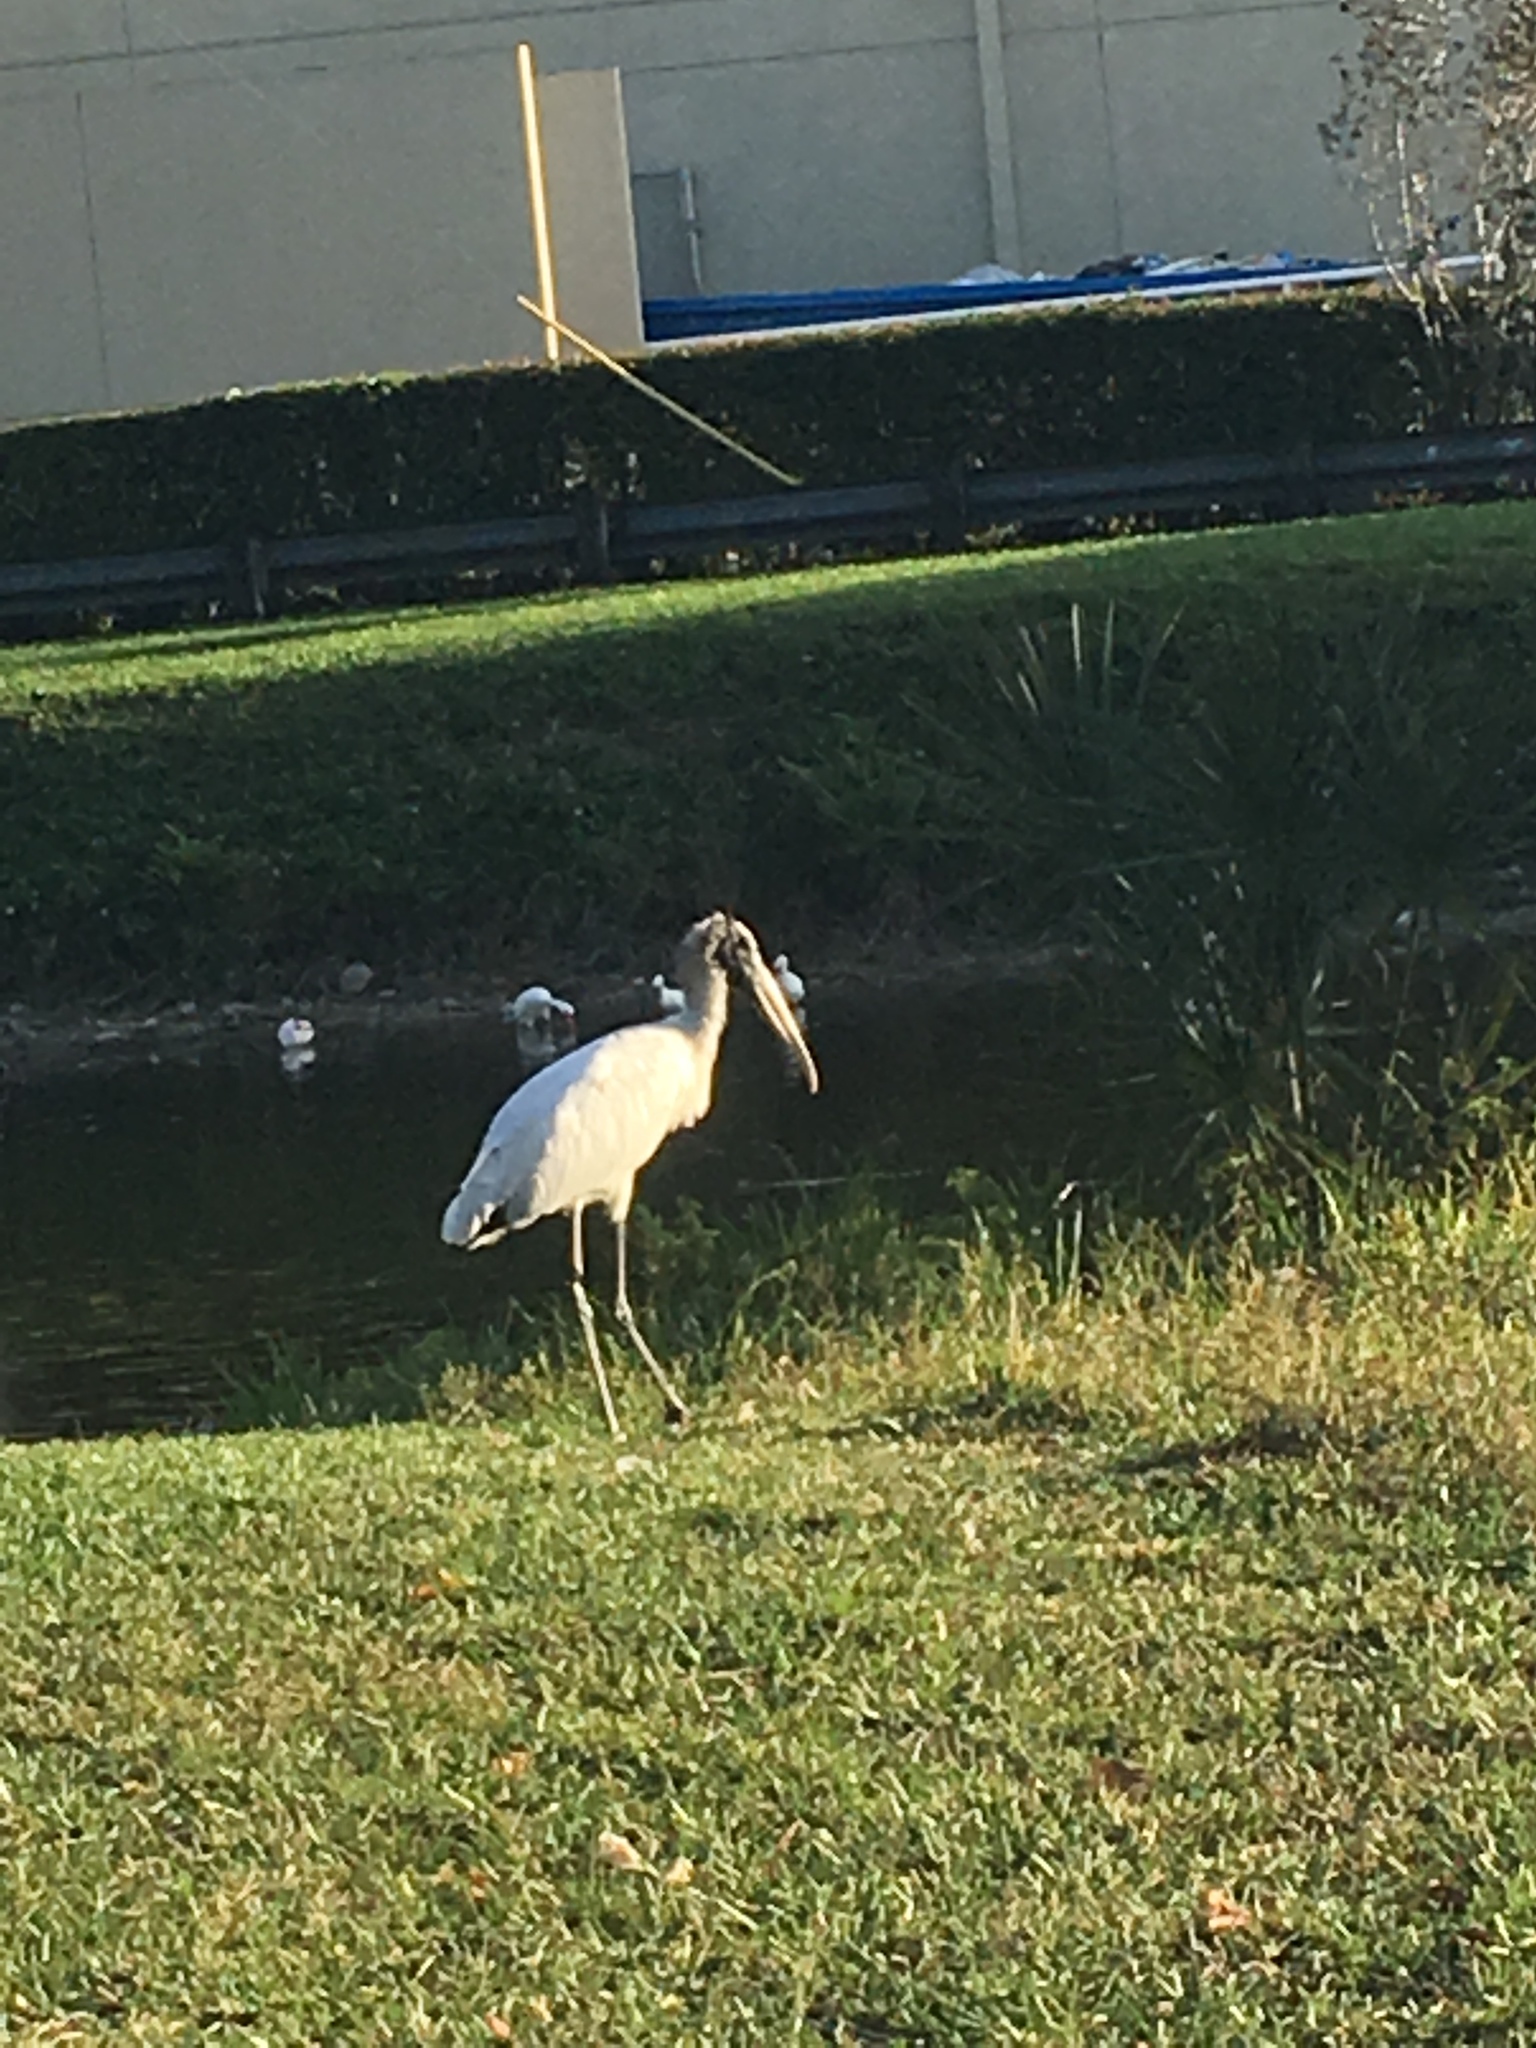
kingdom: Animalia
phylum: Chordata
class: Aves
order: Ciconiiformes
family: Ciconiidae
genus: Mycteria
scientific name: Mycteria americana
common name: Wood stork
